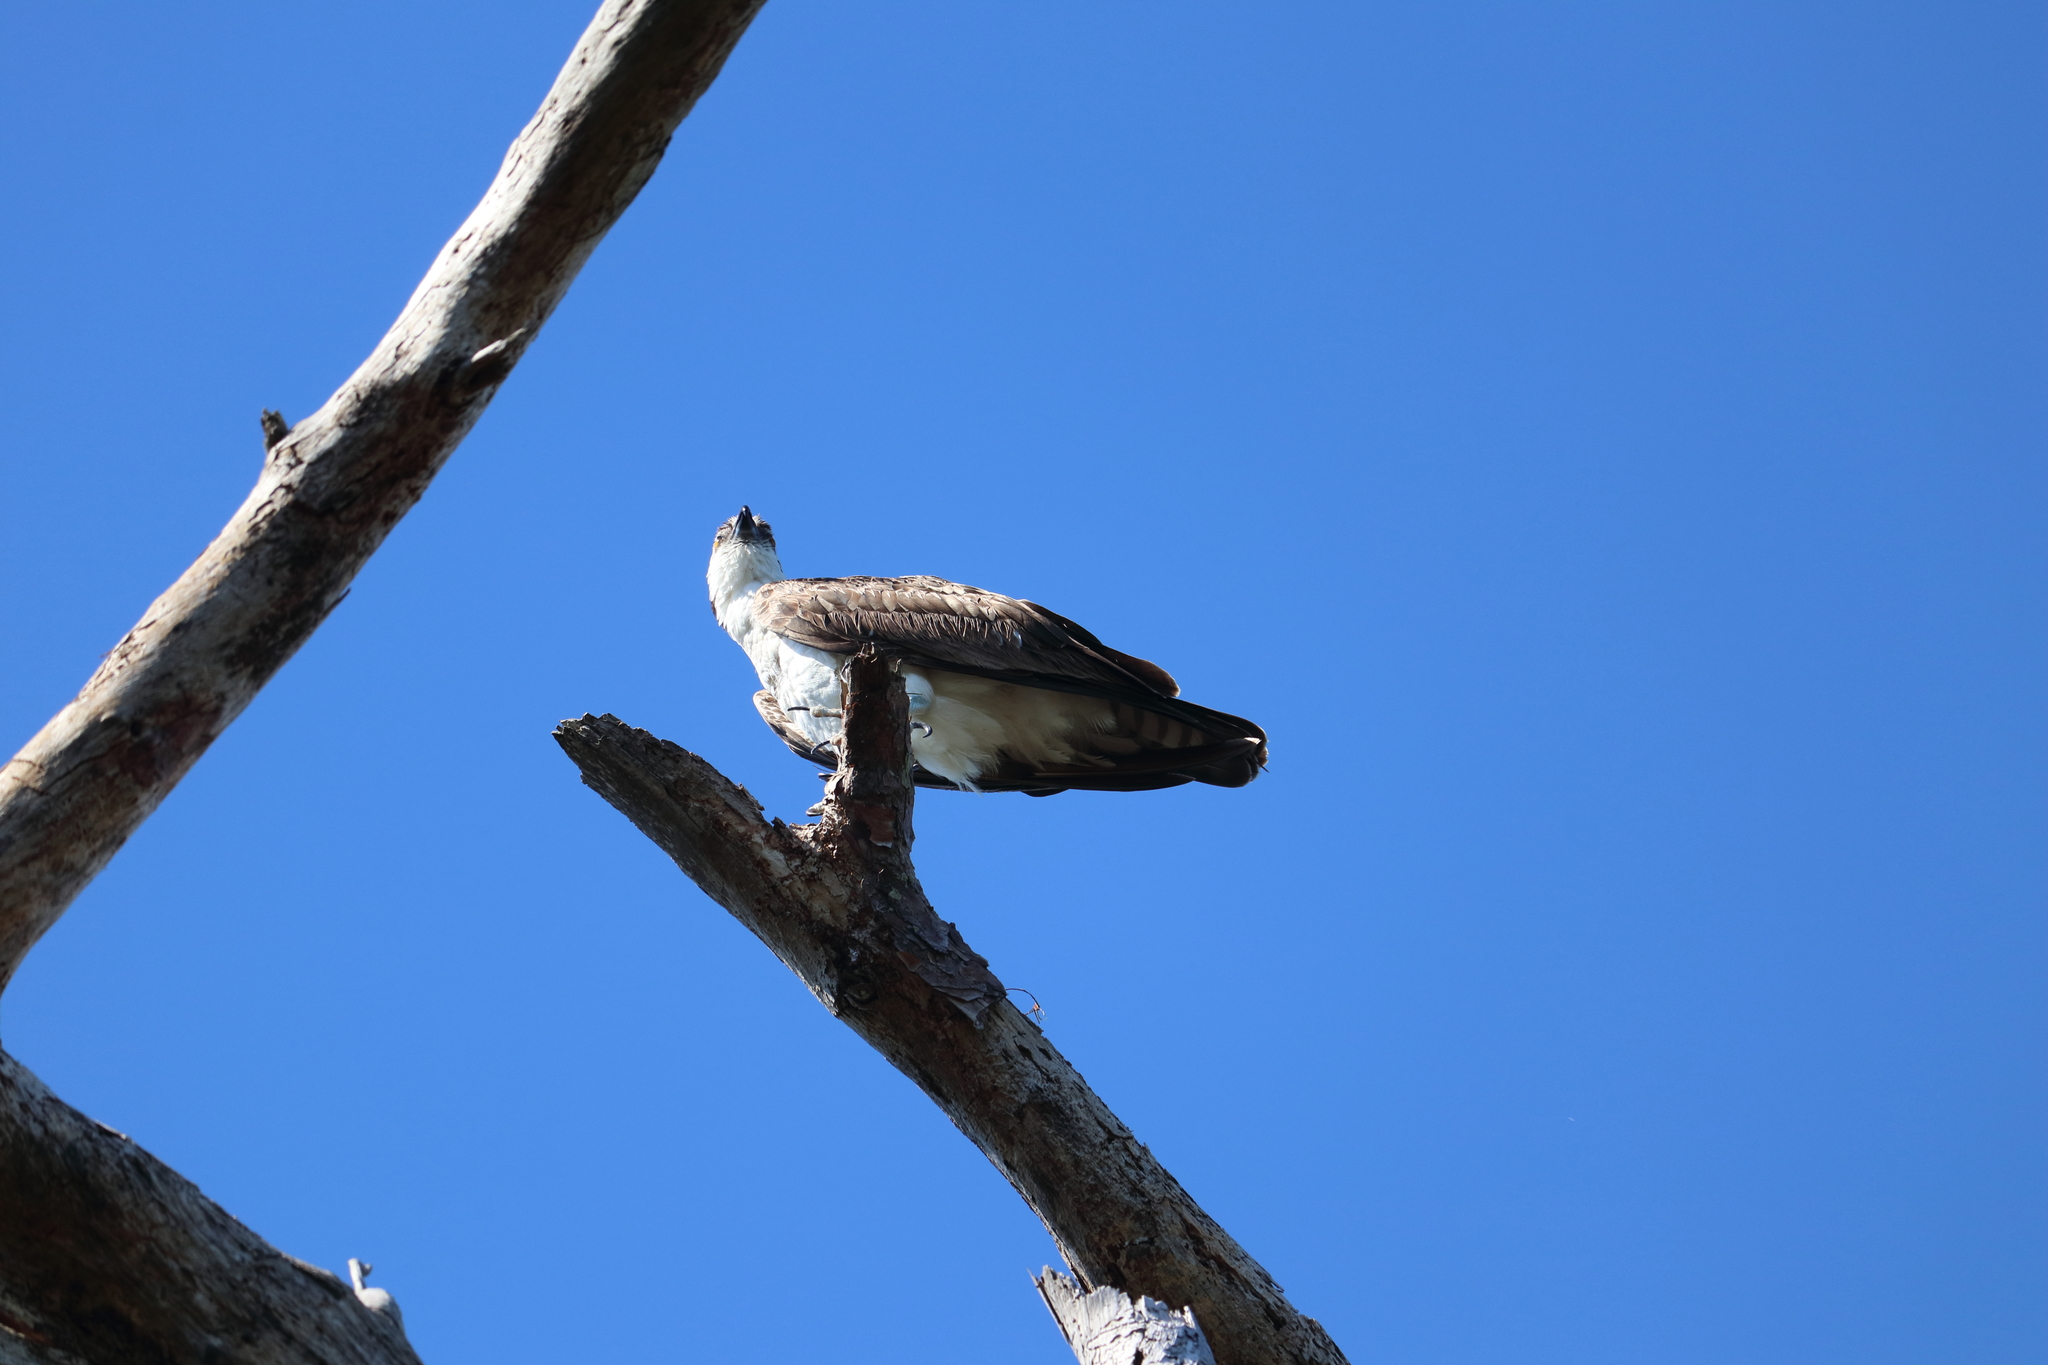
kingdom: Animalia
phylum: Chordata
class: Aves
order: Accipitriformes
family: Pandionidae
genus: Pandion
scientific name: Pandion haliaetus
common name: Osprey
